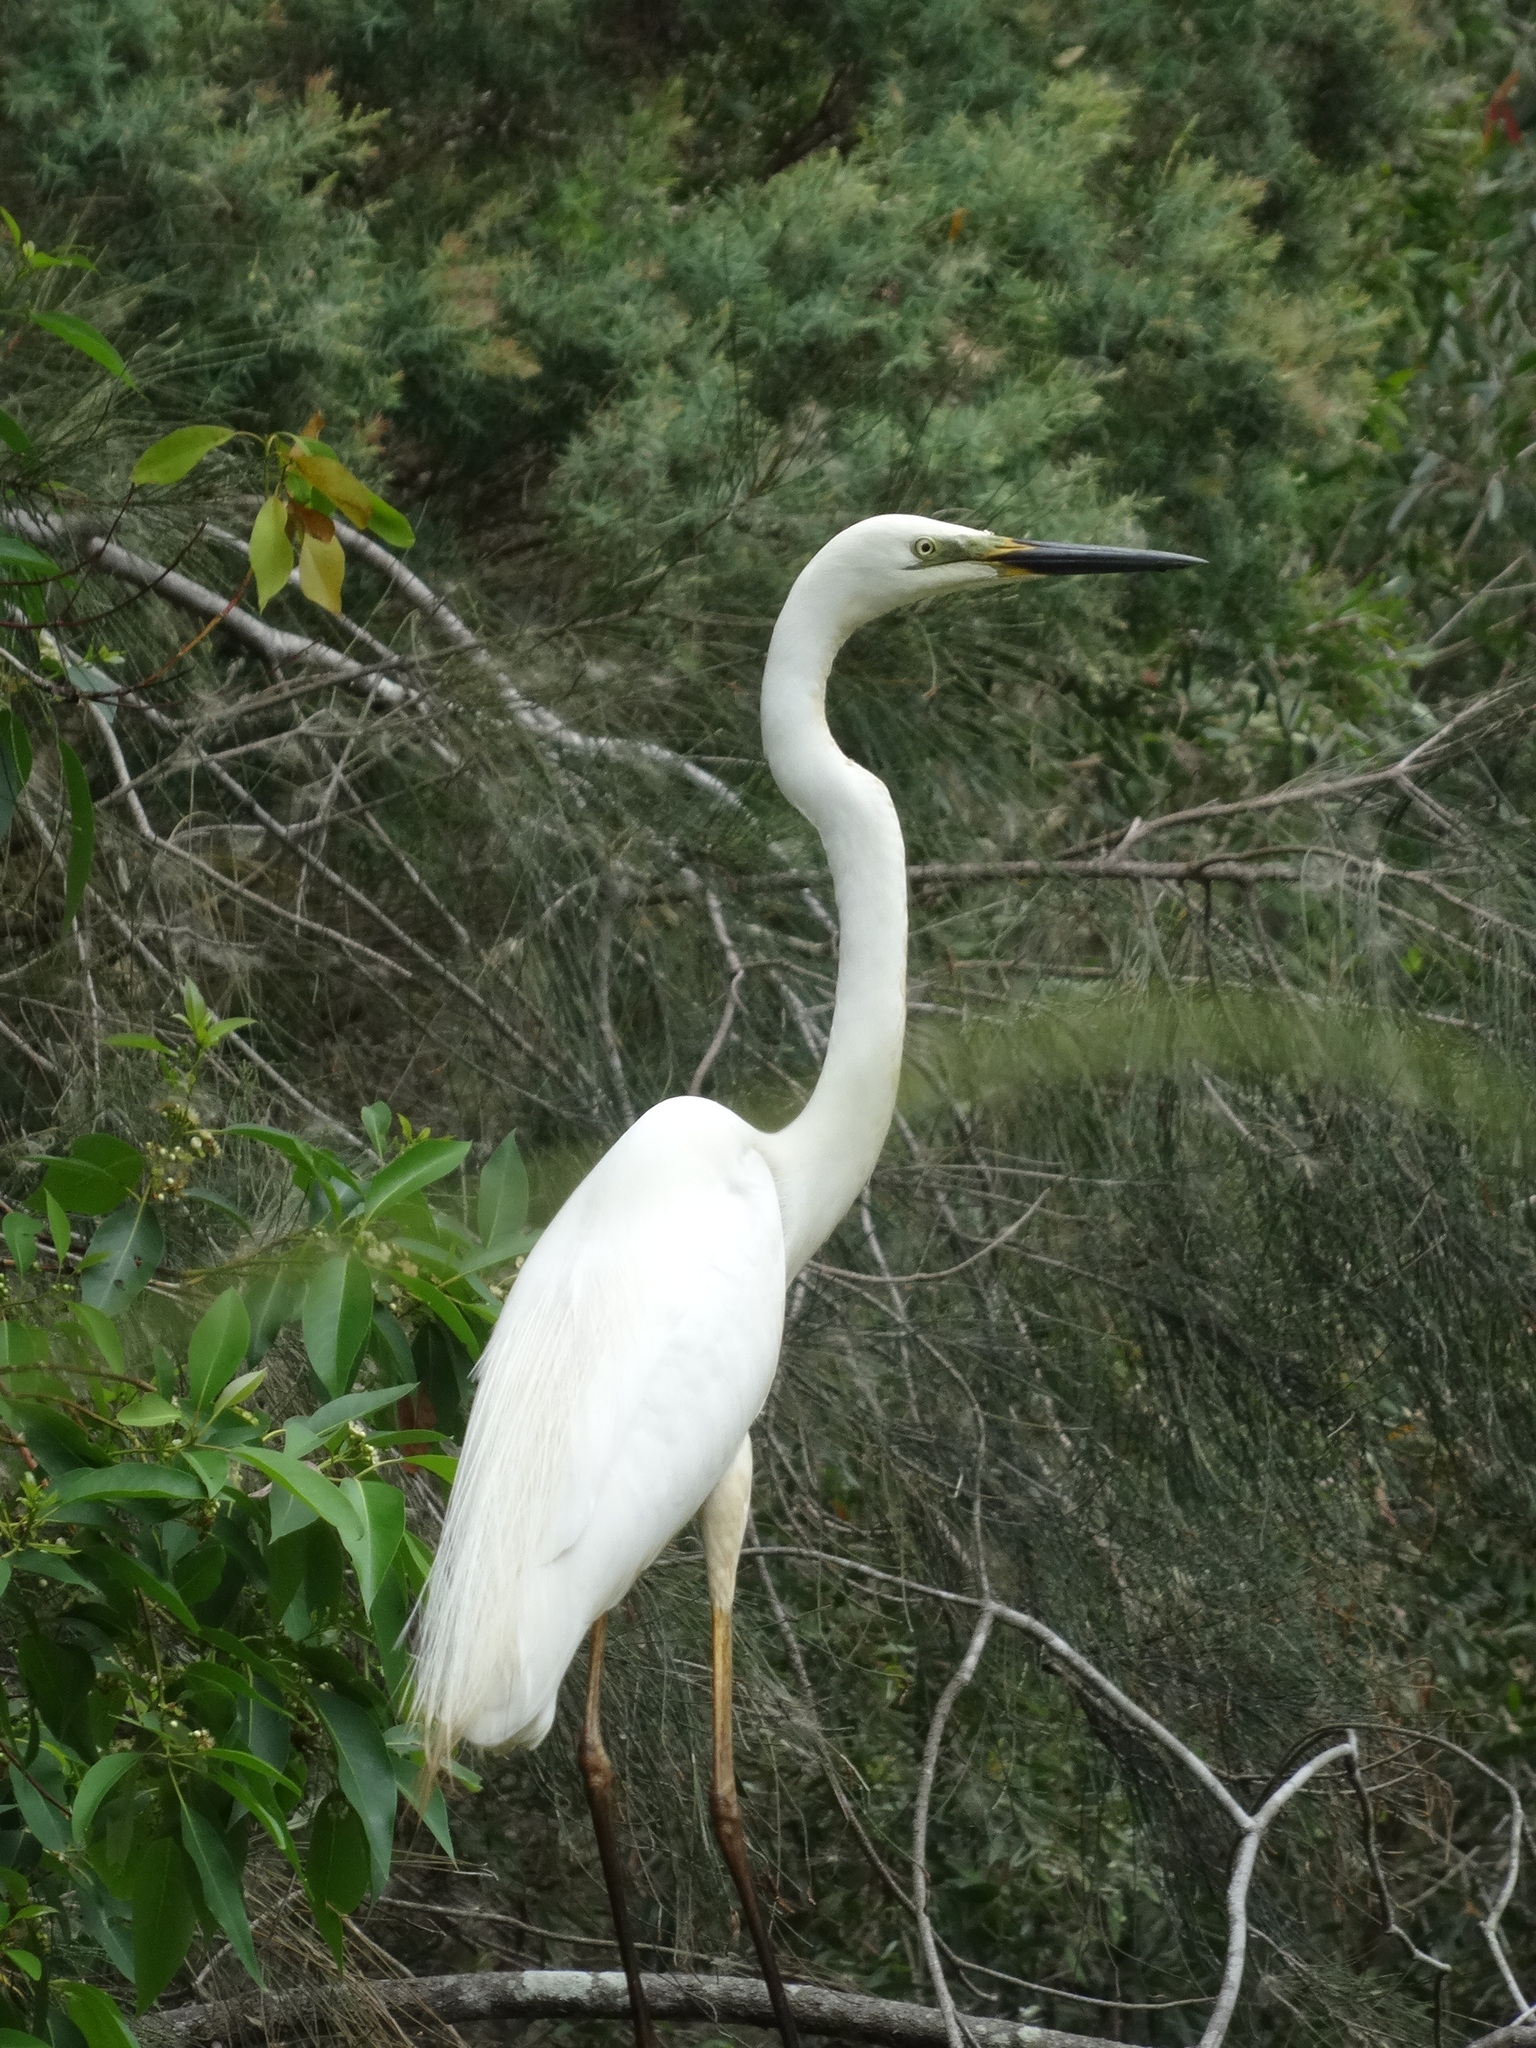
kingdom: Animalia
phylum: Chordata
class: Aves
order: Pelecaniformes
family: Ardeidae
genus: Ardea
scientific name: Ardea modesta
